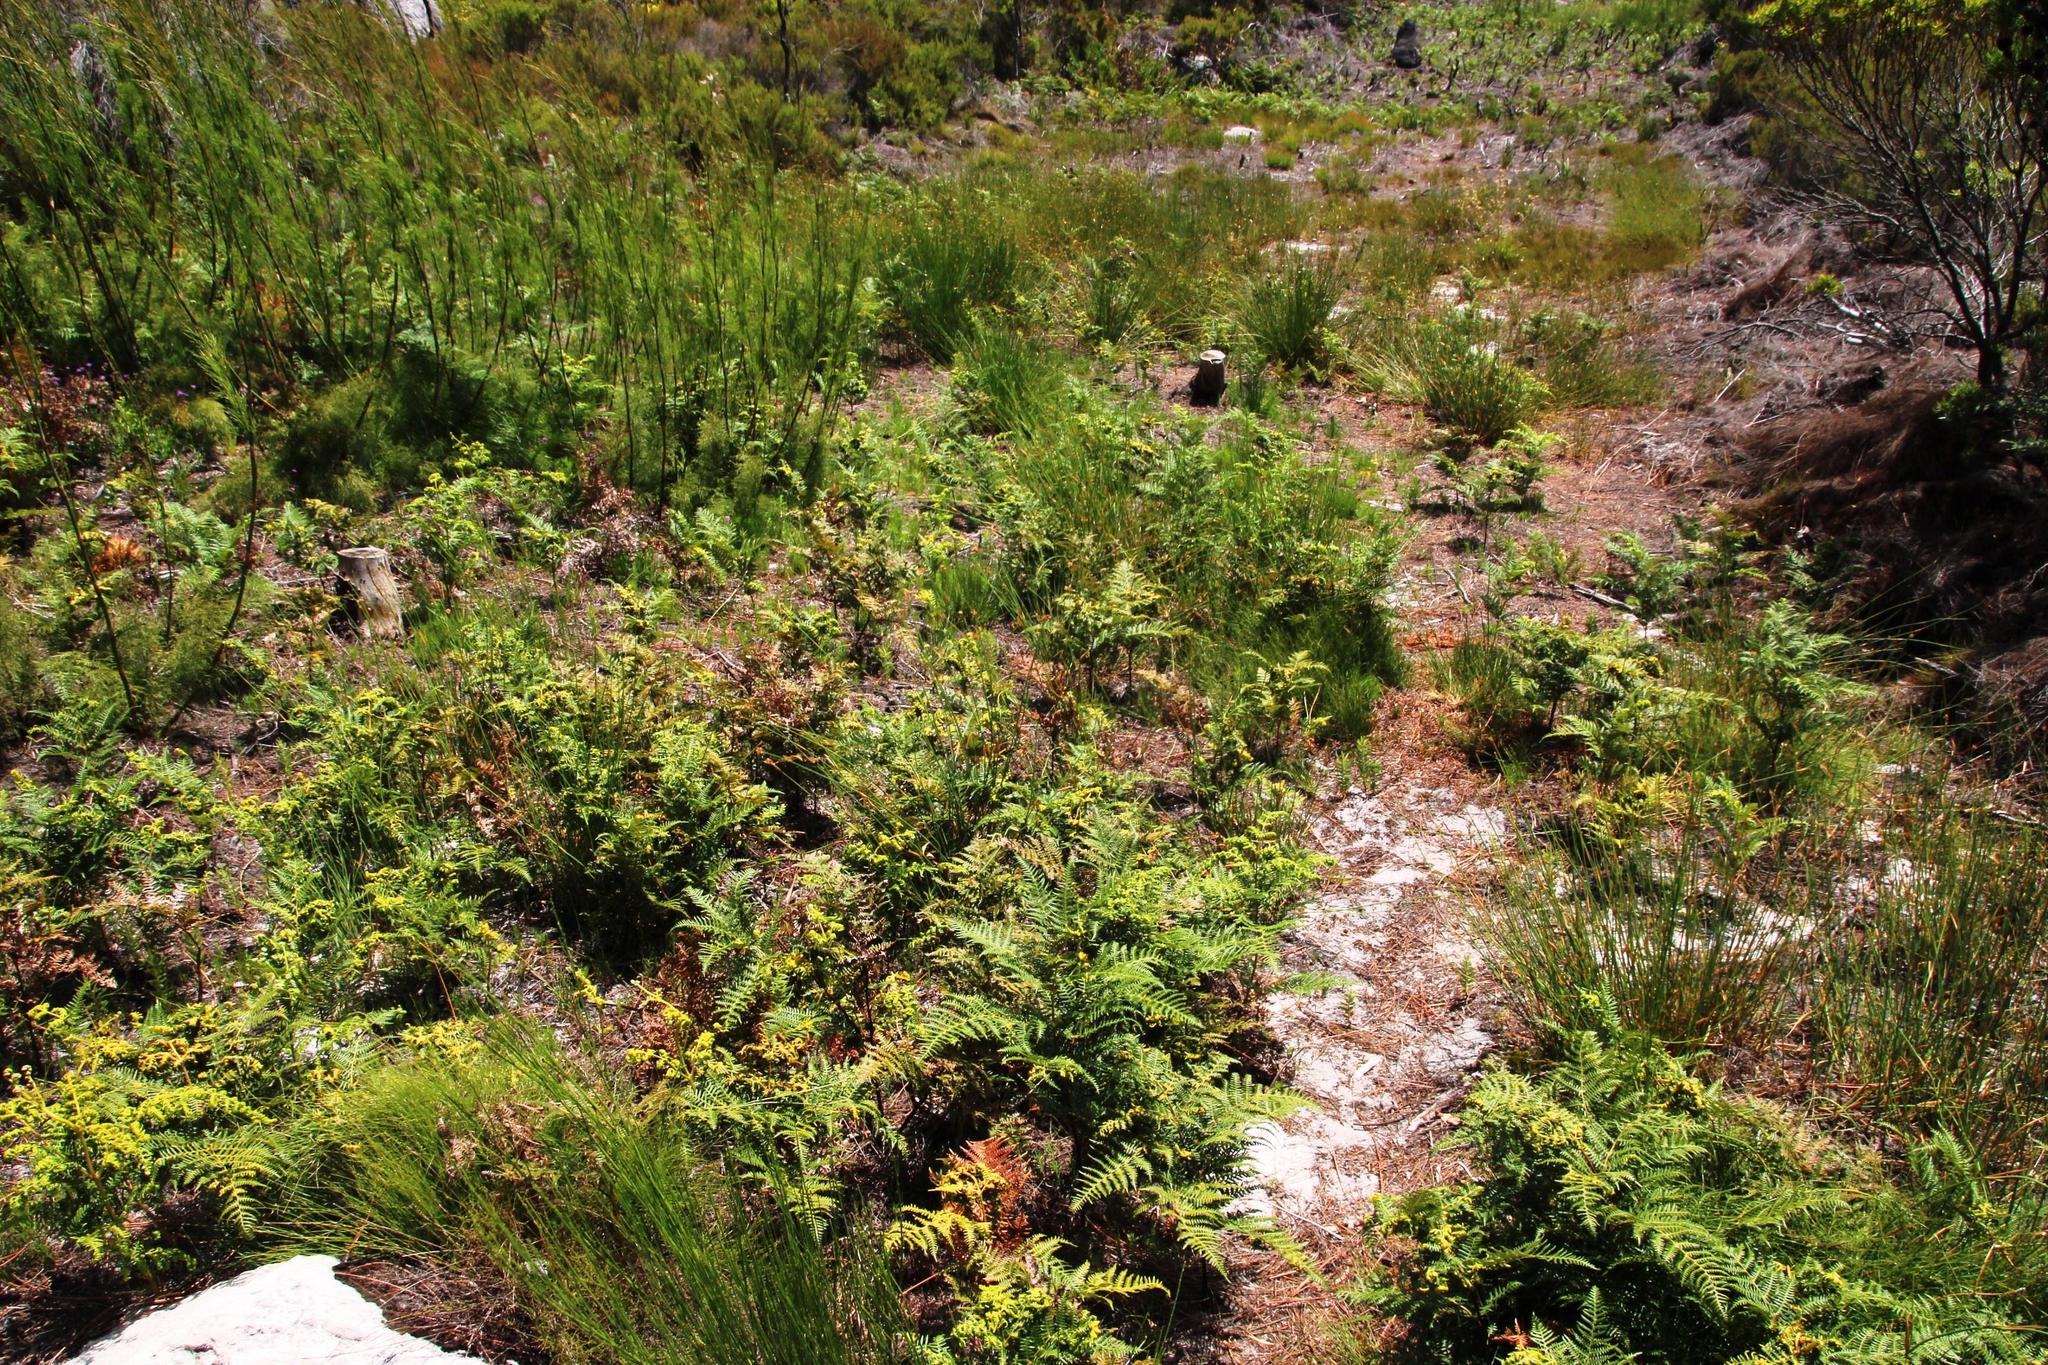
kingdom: Plantae
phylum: Tracheophyta
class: Polypodiopsida
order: Polypodiales
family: Dennstaedtiaceae
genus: Pteridium
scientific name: Pteridium aquilinum
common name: Bracken
